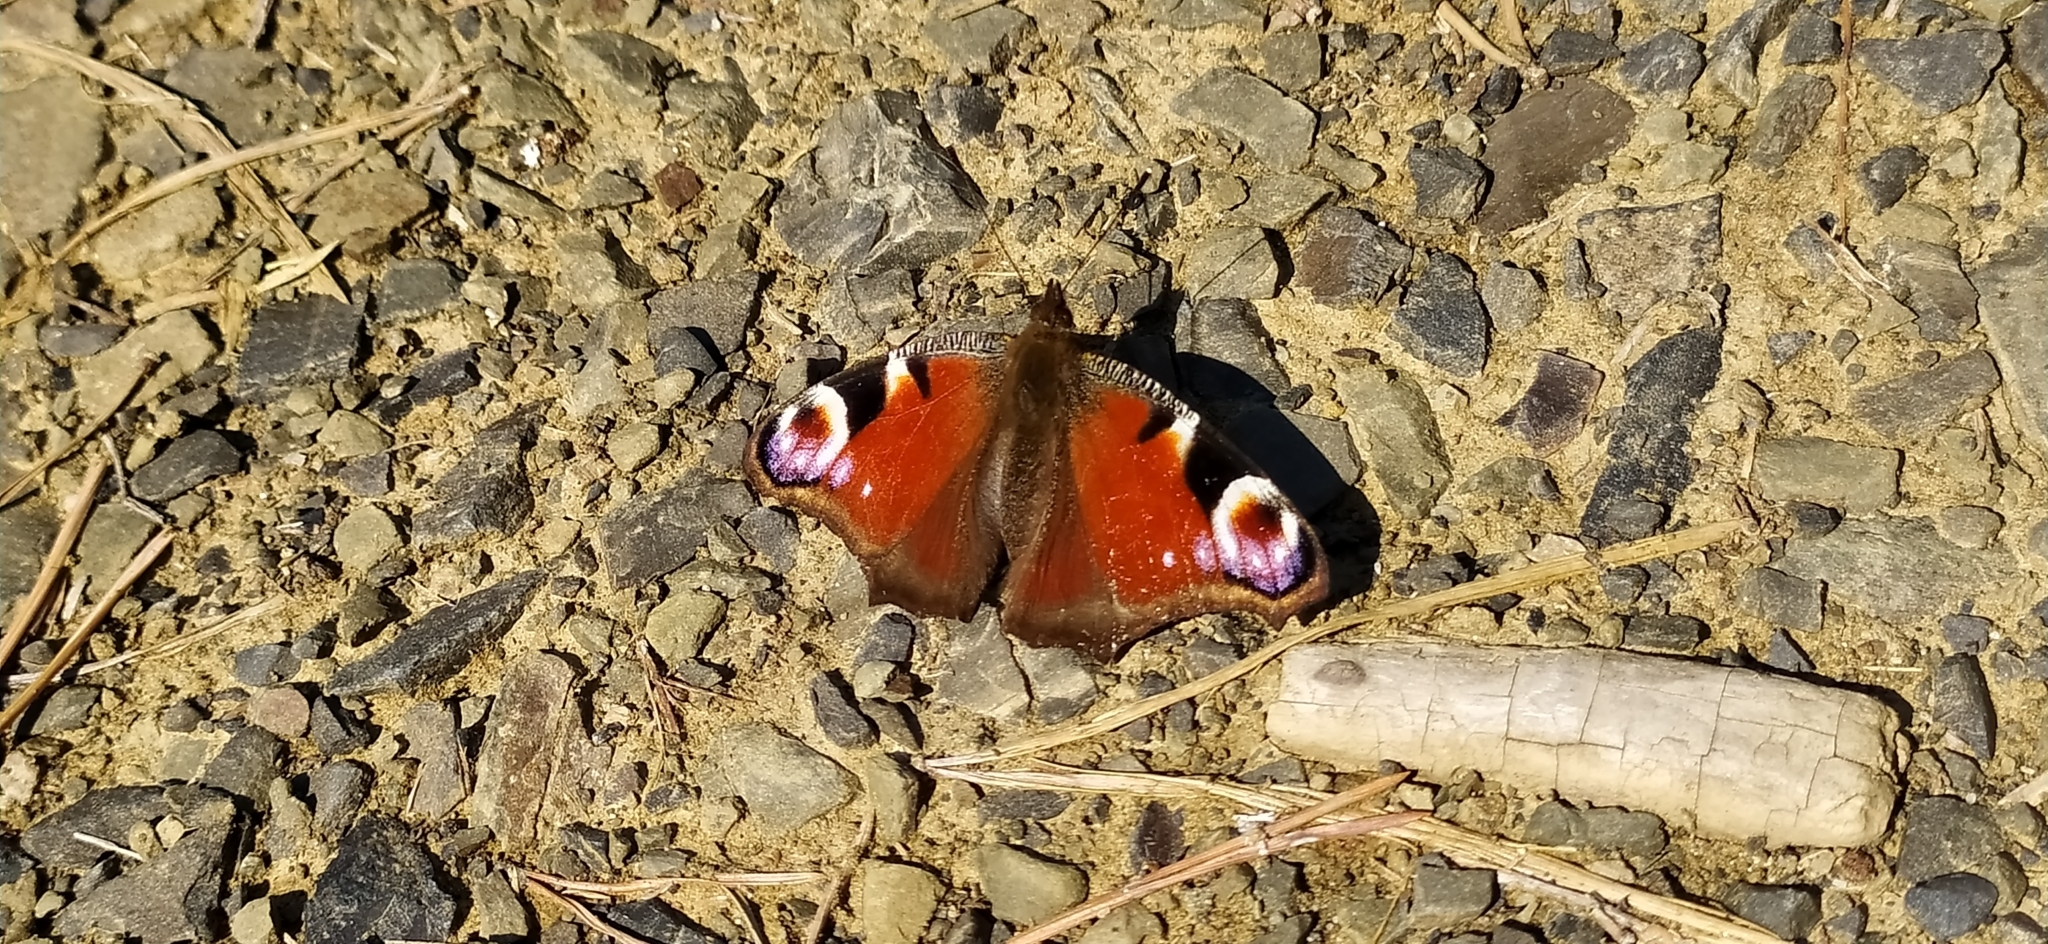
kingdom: Animalia
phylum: Arthropoda
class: Insecta
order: Lepidoptera
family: Nymphalidae
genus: Aglais
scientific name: Aglais io
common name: Peacock
